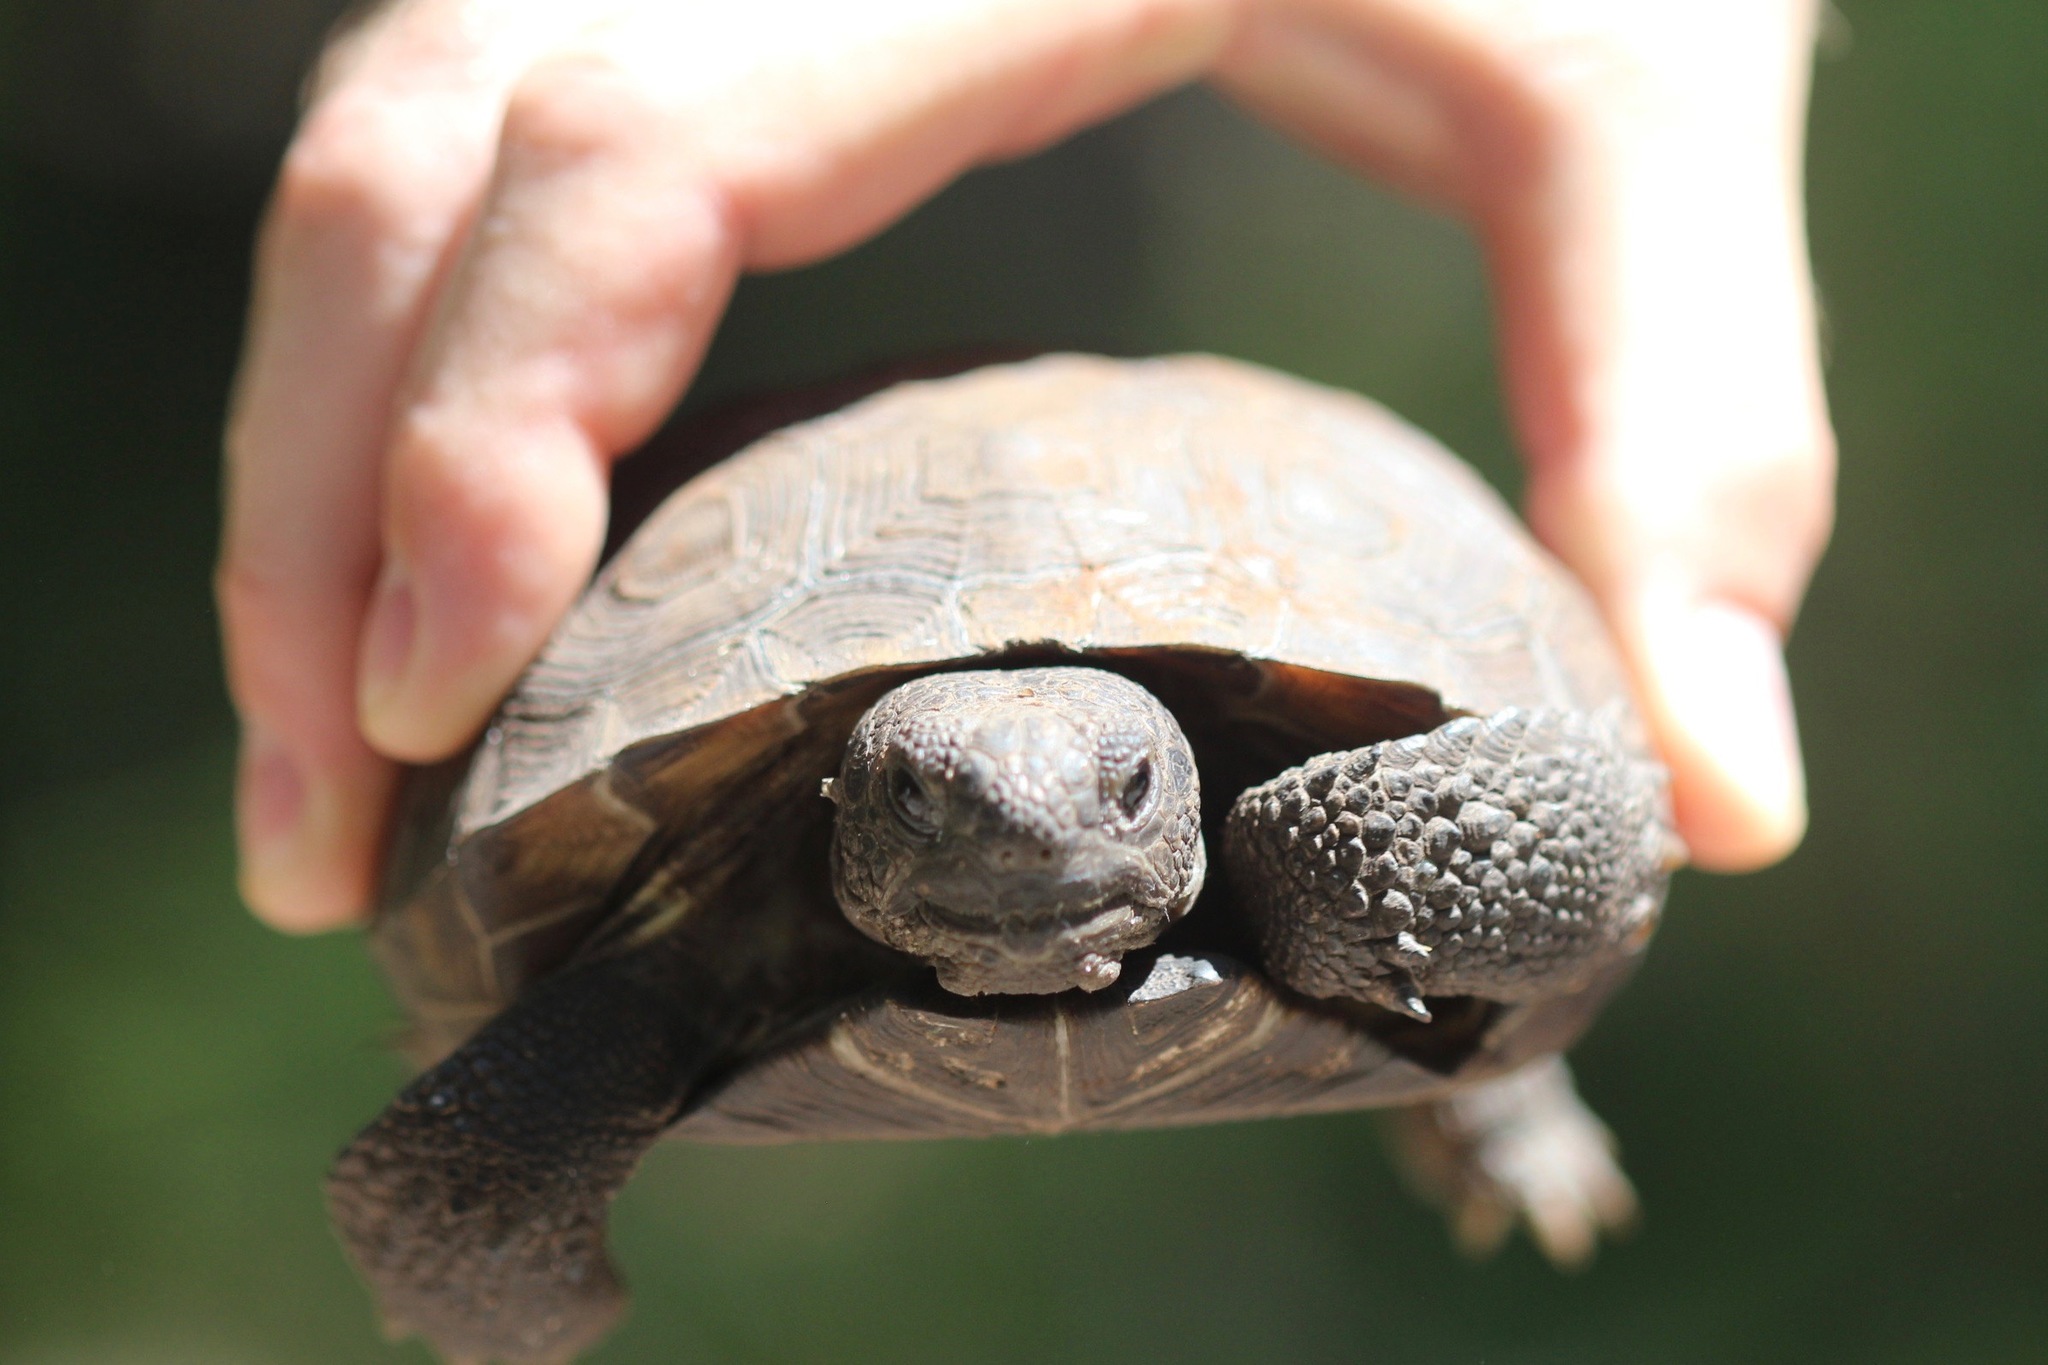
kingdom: Animalia
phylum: Chordata
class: Testudines
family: Testudinidae
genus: Gopherus
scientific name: Gopherus polyphemus
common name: Florida gopher tortoise
